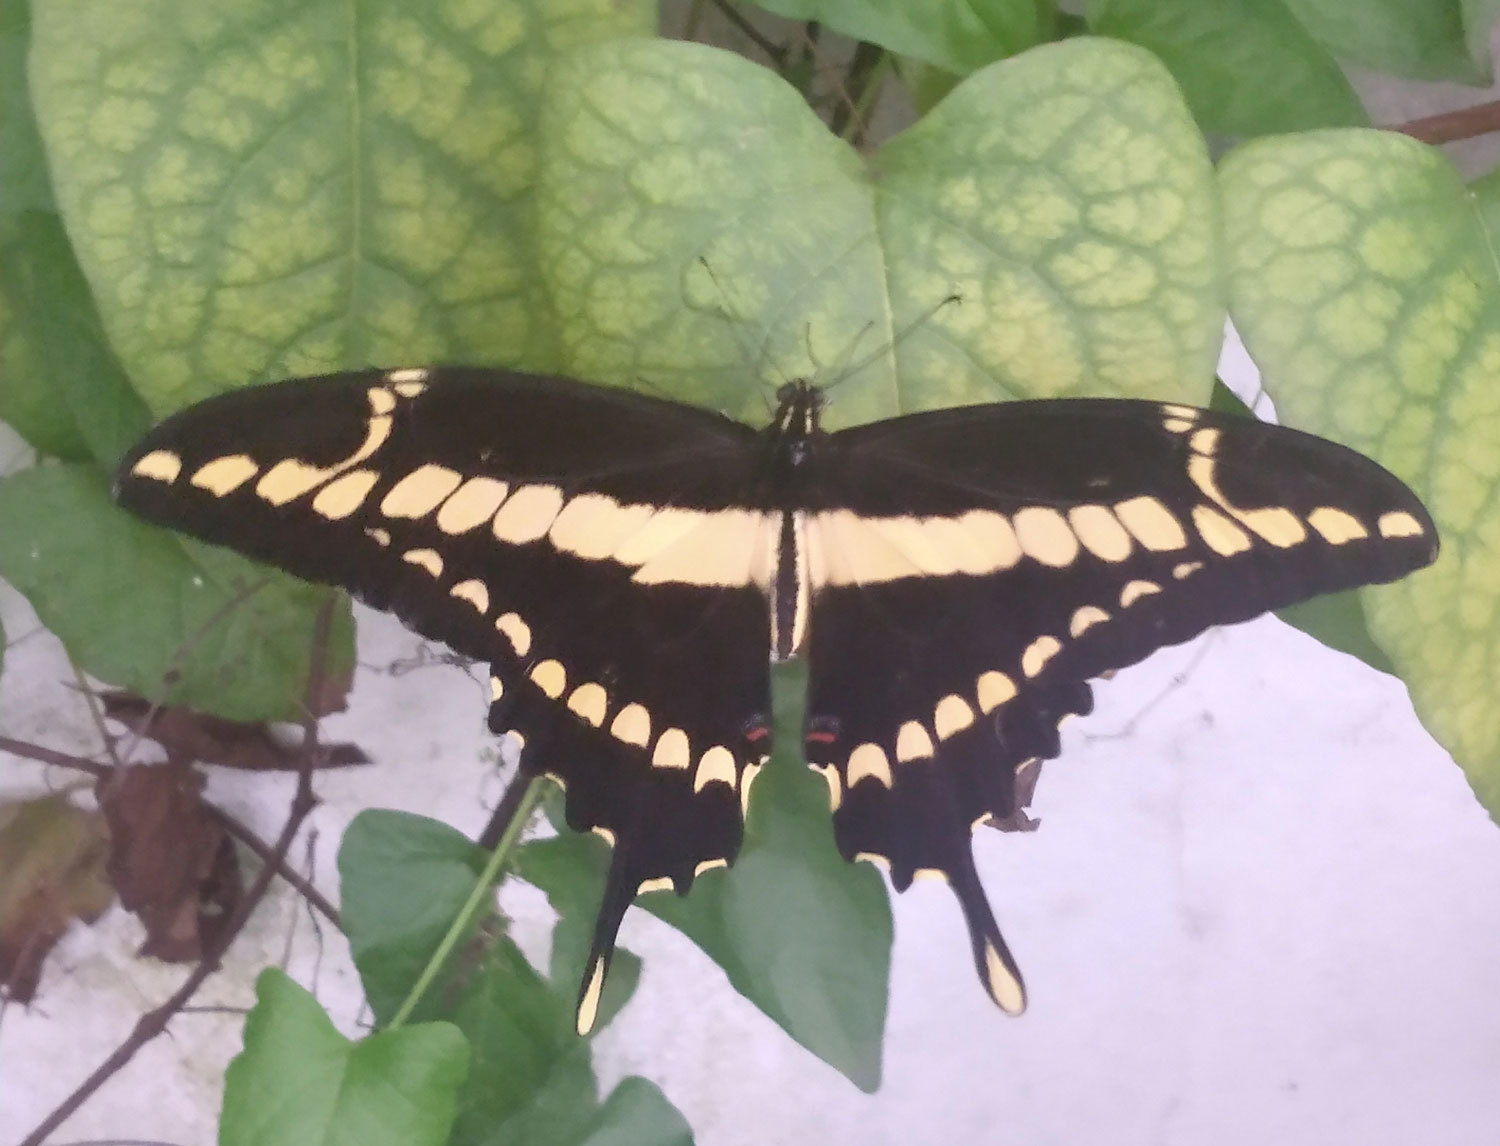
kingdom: Animalia
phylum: Arthropoda
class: Insecta
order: Lepidoptera
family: Papilionidae
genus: Papilio
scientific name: Papilio thoas
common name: King swallowtail
